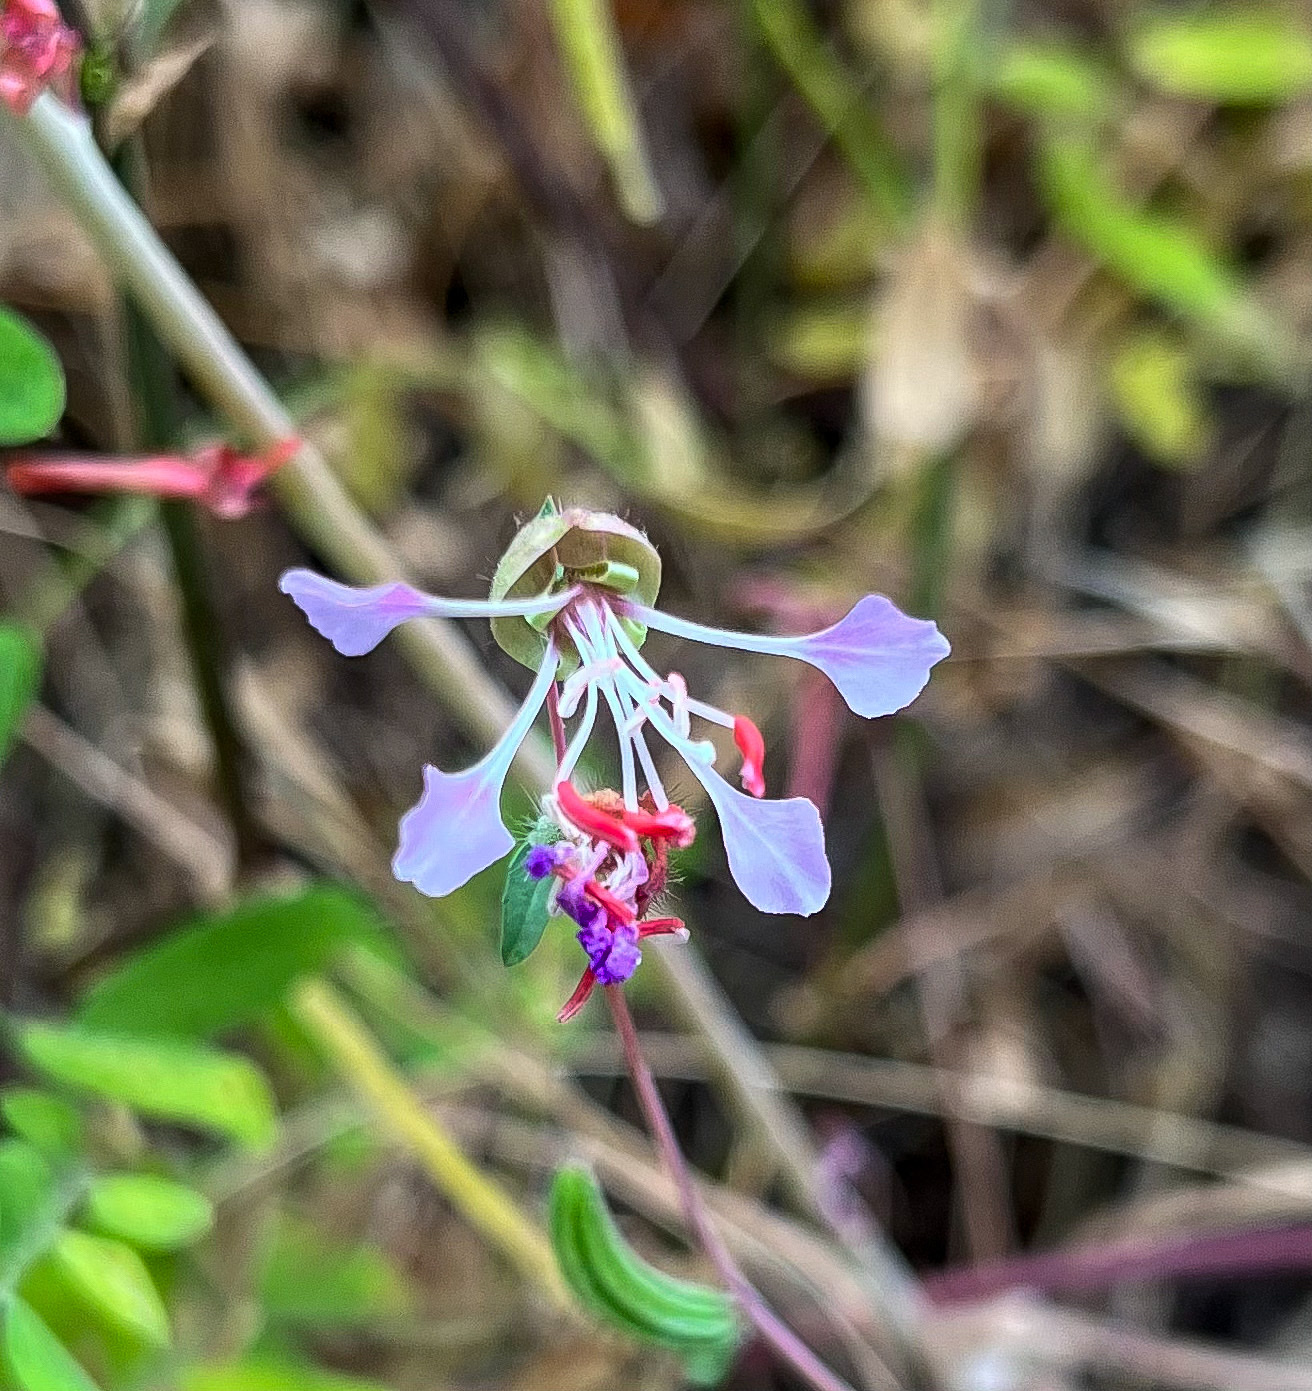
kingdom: Plantae
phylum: Tracheophyta
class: Magnoliopsida
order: Myrtales
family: Onagraceae
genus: Clarkia
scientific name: Clarkia unguiculata
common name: Clarkia
